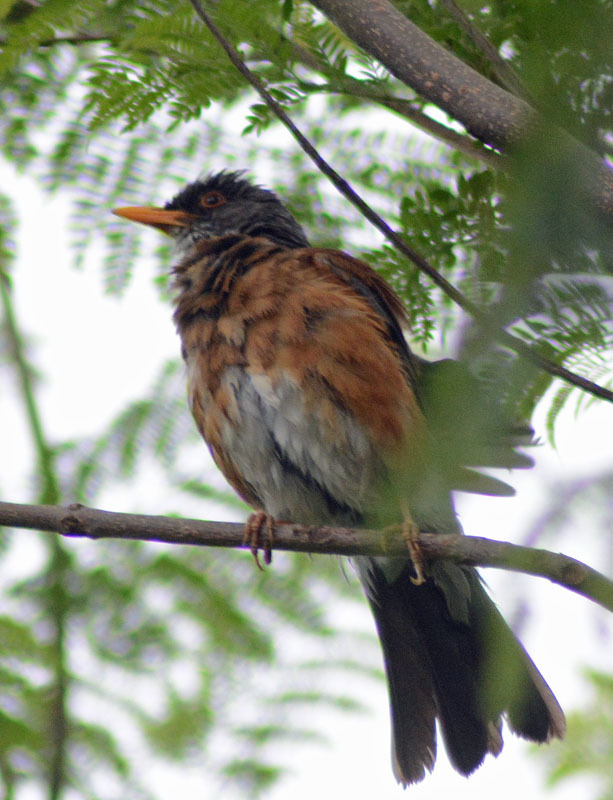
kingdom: Animalia
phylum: Chordata
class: Aves
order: Passeriformes
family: Turdidae
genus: Turdus
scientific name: Turdus rufopalliatus
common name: Rufous-backed robin
